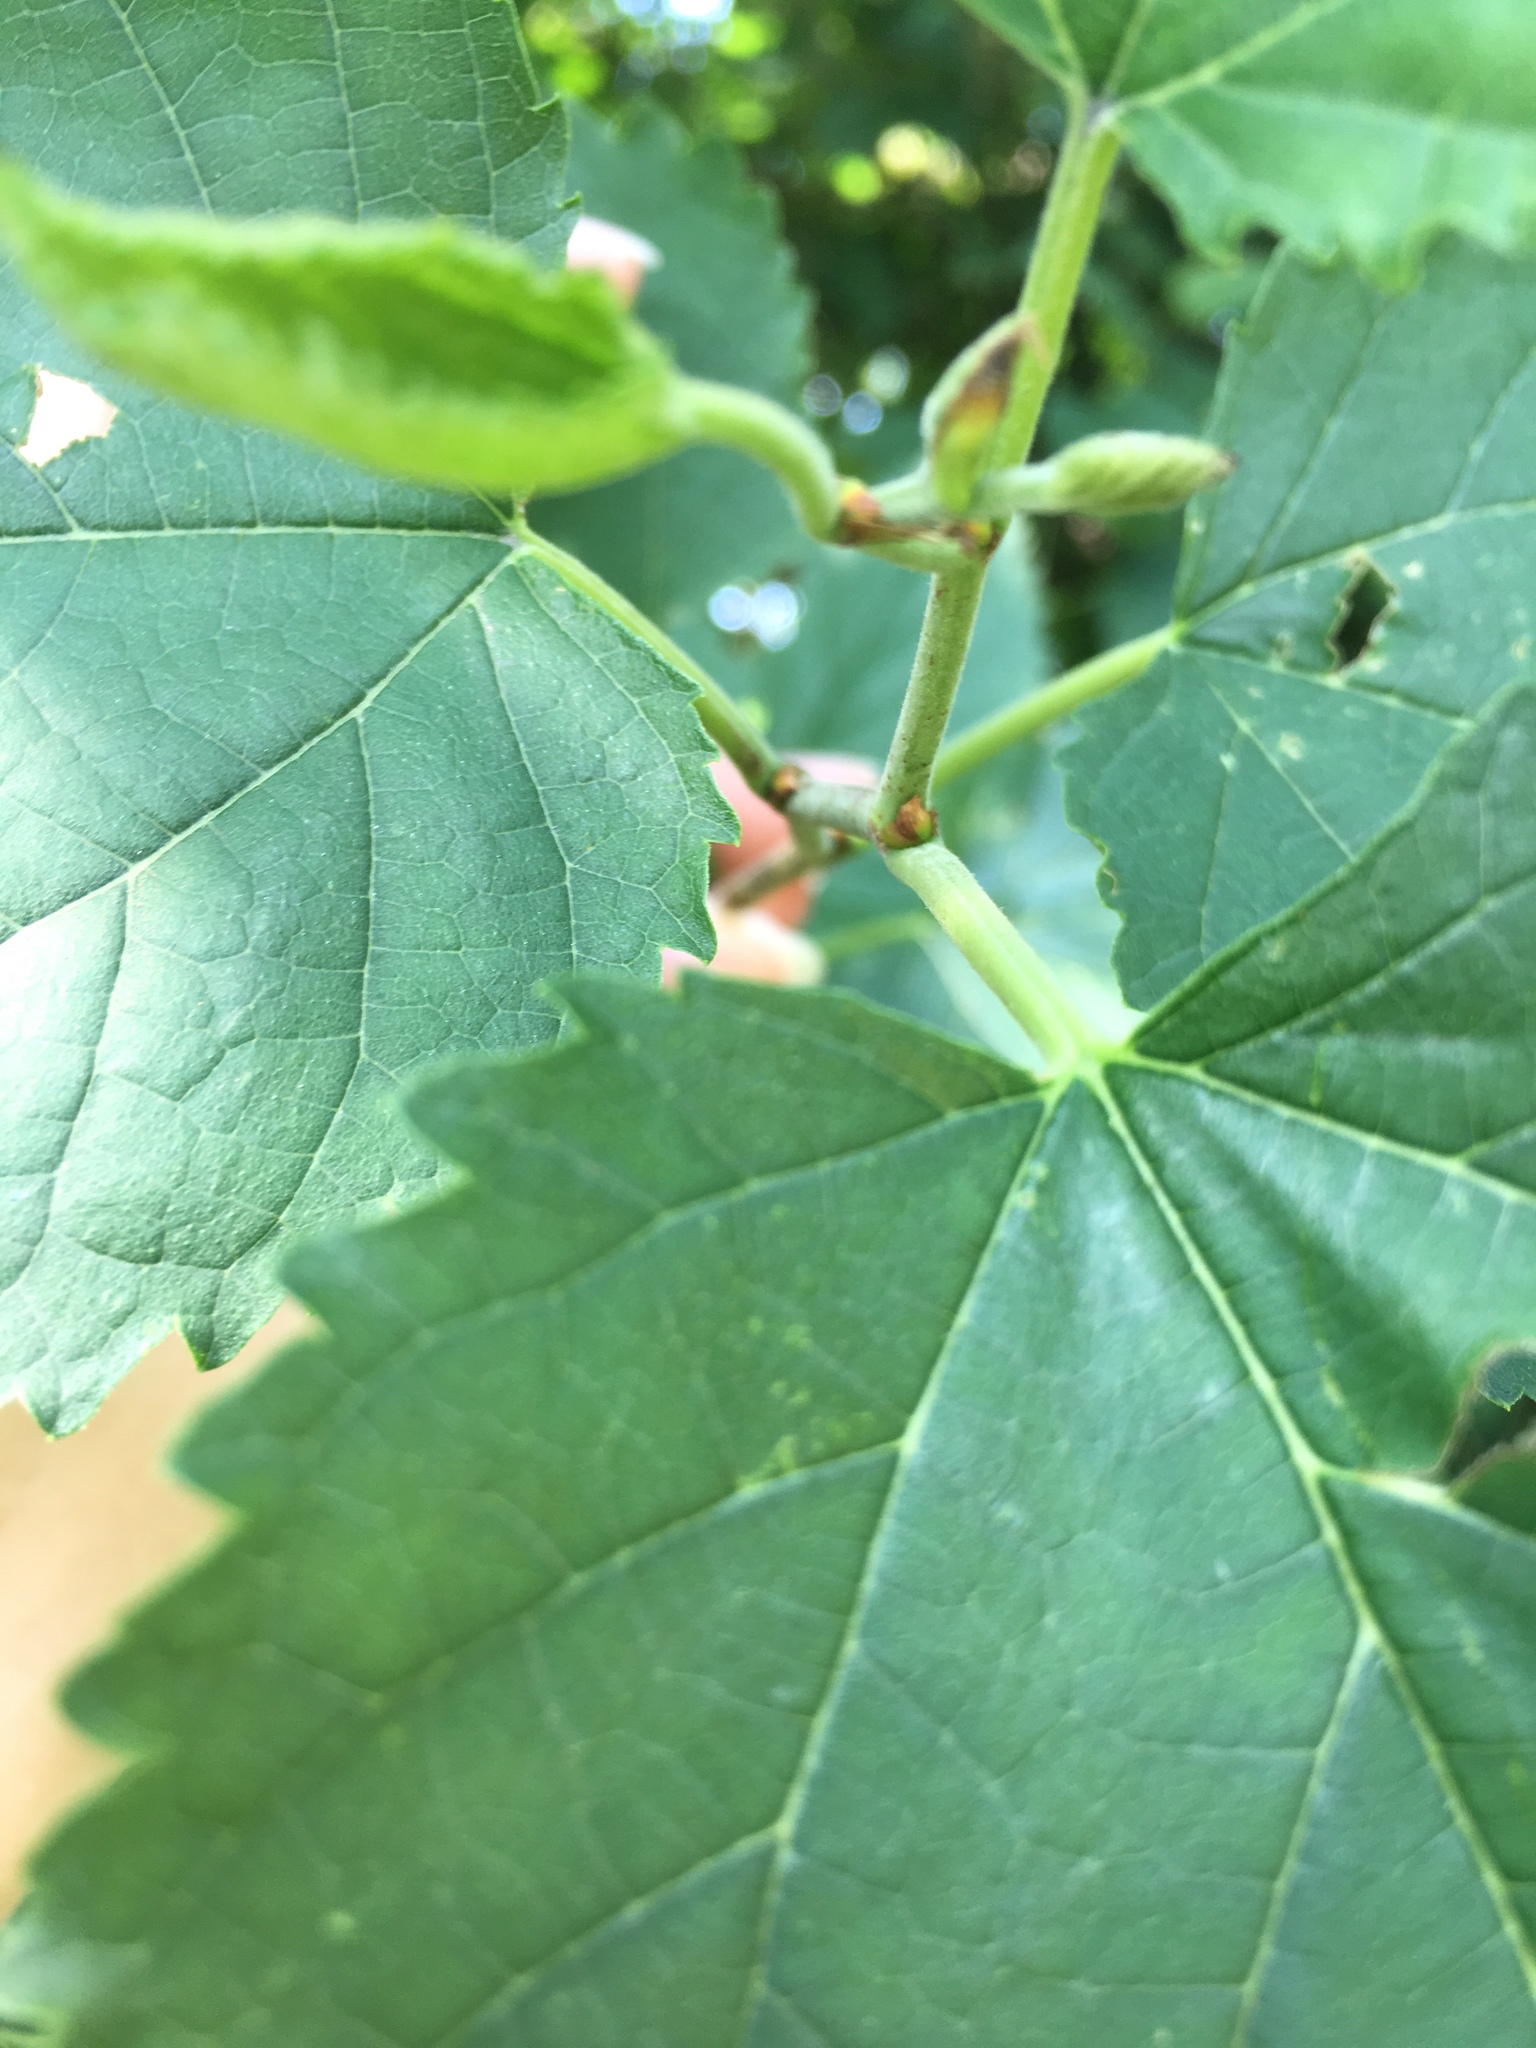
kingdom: Plantae
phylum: Tracheophyta
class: Magnoliopsida
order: Rosales
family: Moraceae
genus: Morus
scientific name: Morus alba
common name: White mulberry
